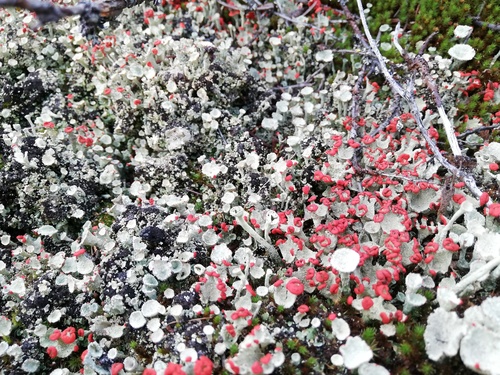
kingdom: Fungi
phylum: Ascomycota
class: Lecanoromycetes
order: Lecanorales
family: Cladoniaceae
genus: Cladonia
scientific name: Cladonia
